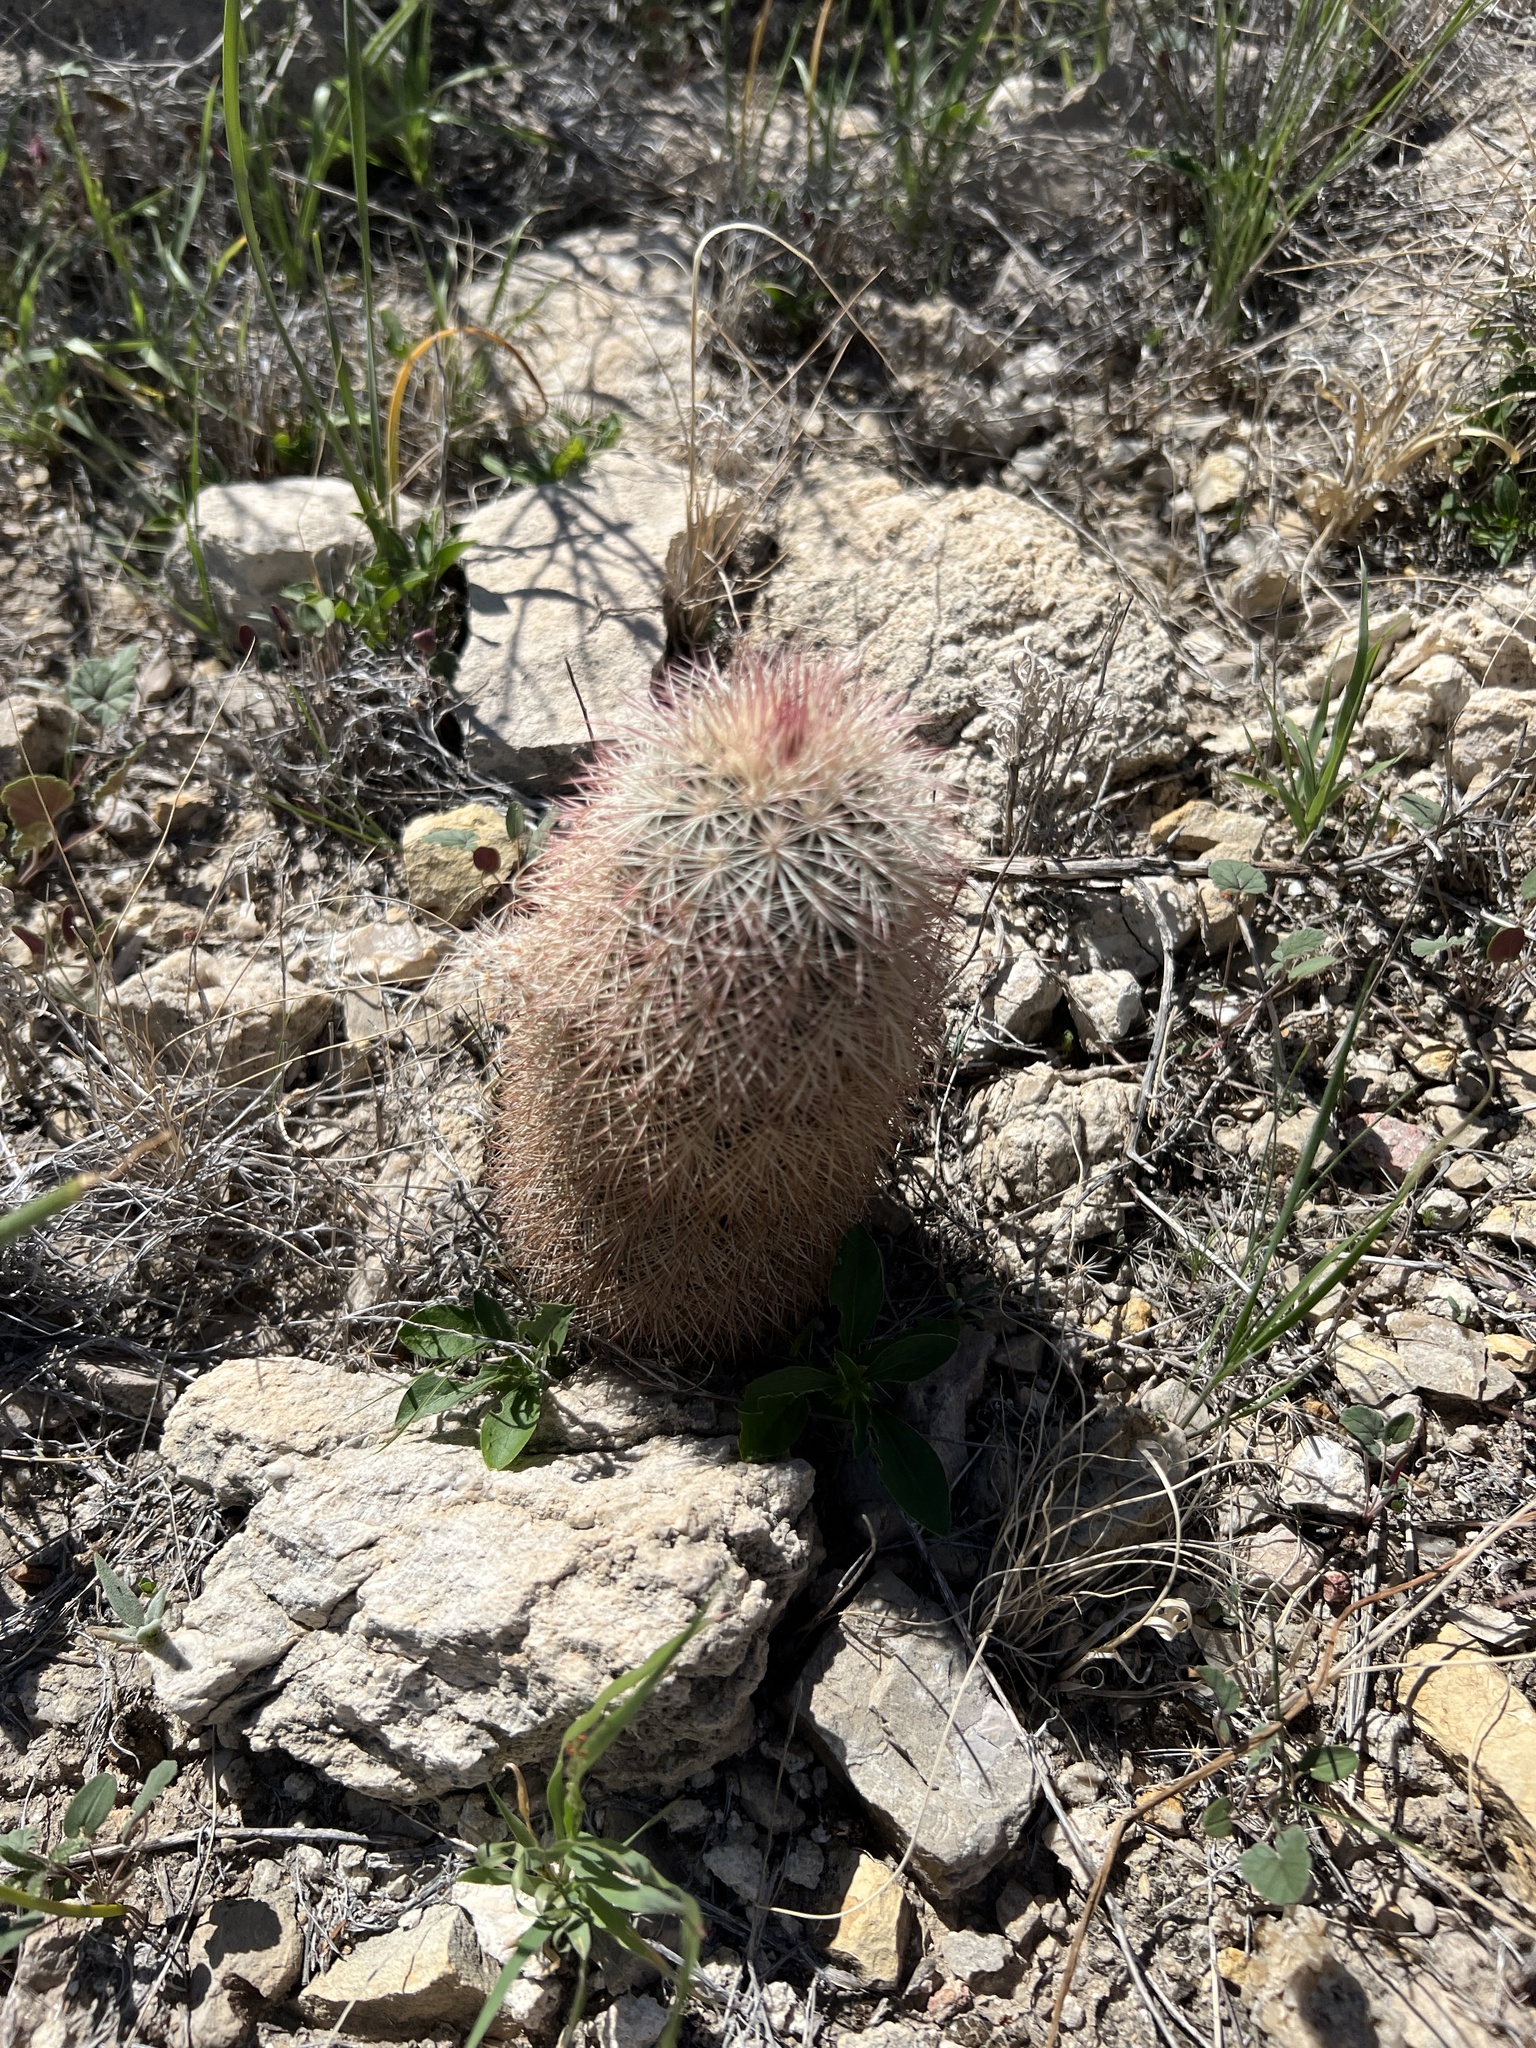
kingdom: Plantae
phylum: Tracheophyta
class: Magnoliopsida
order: Caryophyllales
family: Cactaceae
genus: Echinocereus
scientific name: Echinocereus dasyacanthus
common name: Spiny hedgehog cactus
